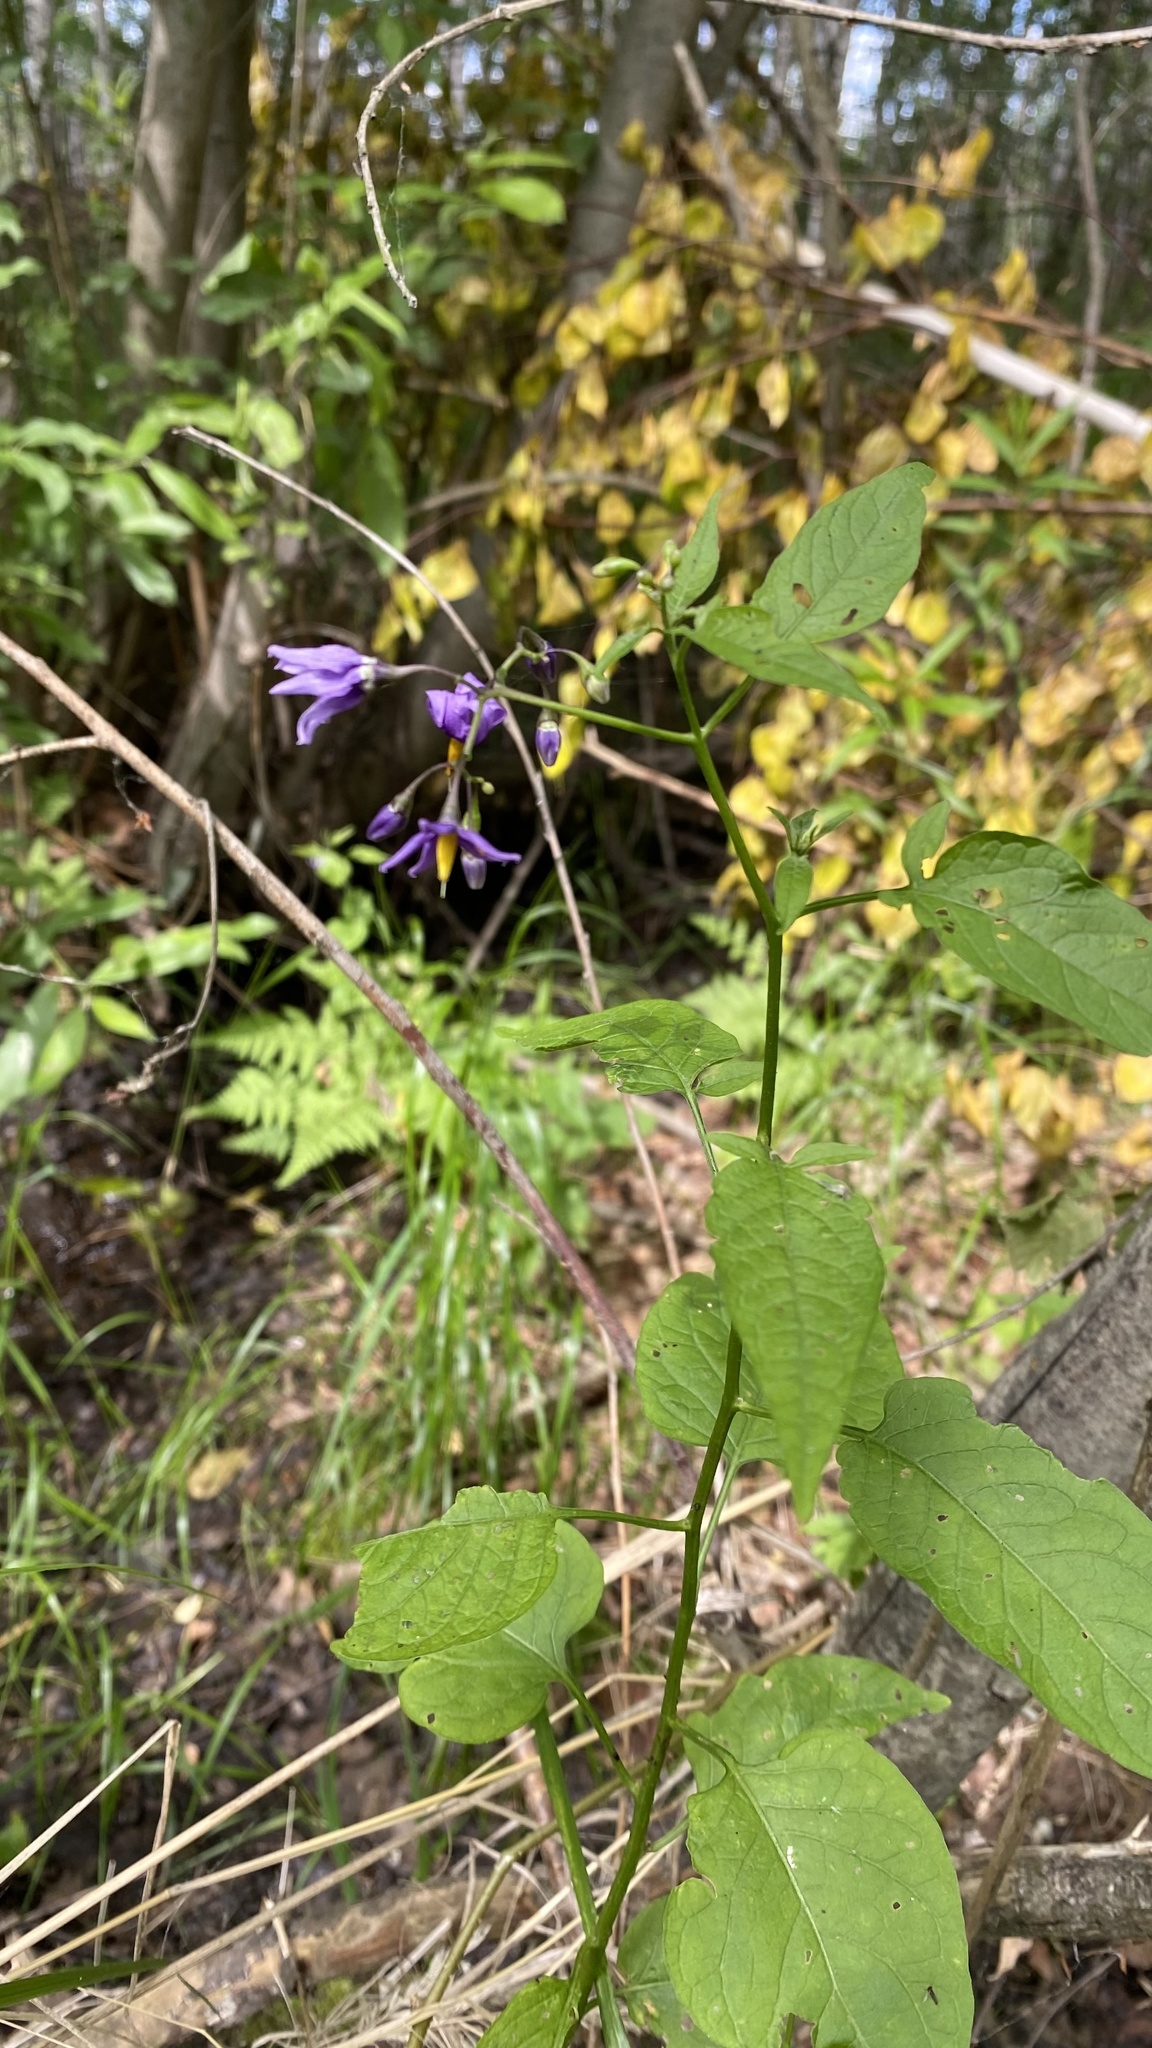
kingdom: Plantae
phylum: Tracheophyta
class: Magnoliopsida
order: Solanales
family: Solanaceae
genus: Solanum
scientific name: Solanum dulcamara
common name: Climbing nightshade
